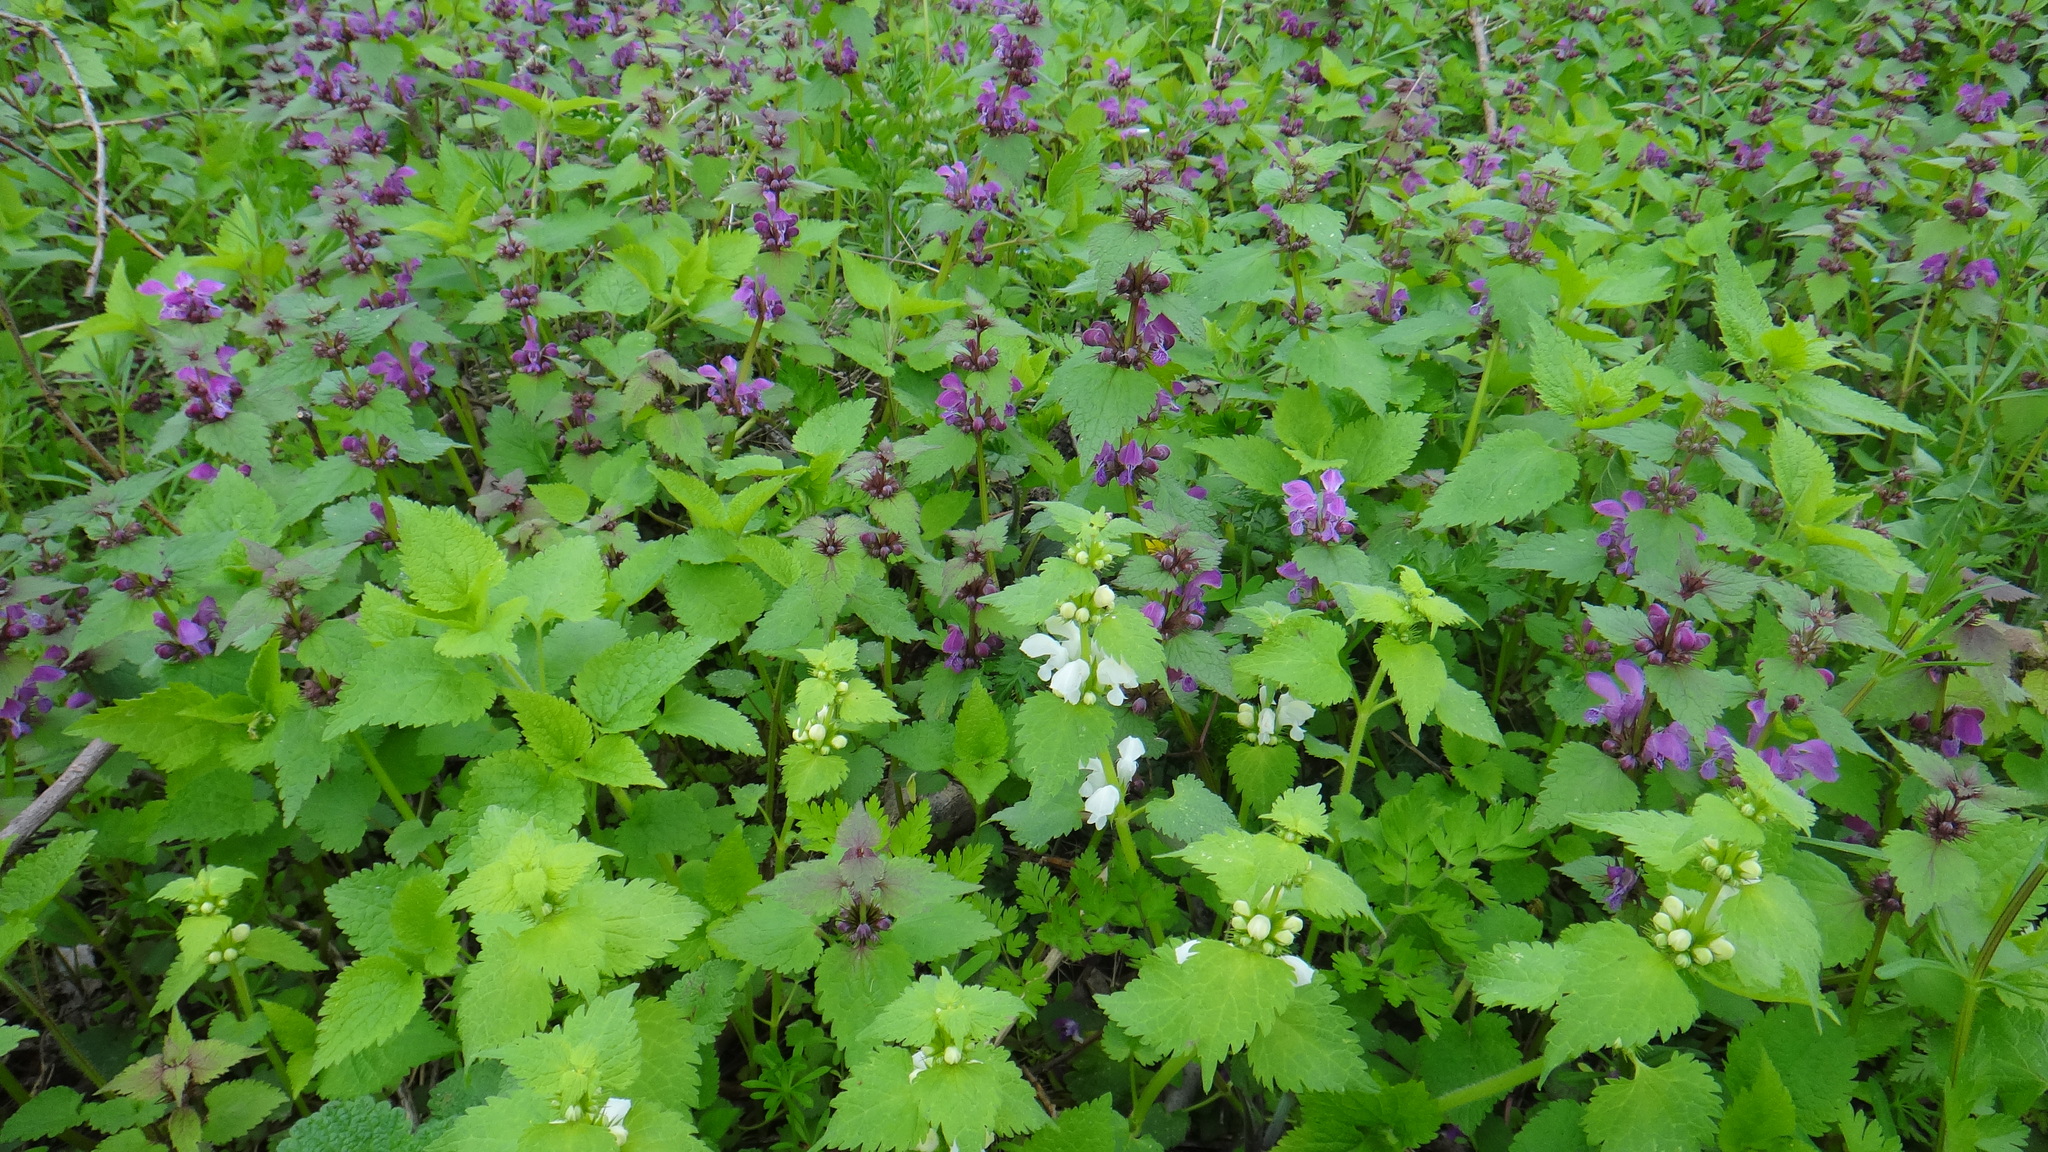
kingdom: Plantae
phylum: Tracheophyta
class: Magnoliopsida
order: Lamiales
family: Lamiaceae
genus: Lamium
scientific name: Lamium maculatum
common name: Spotted dead-nettle
